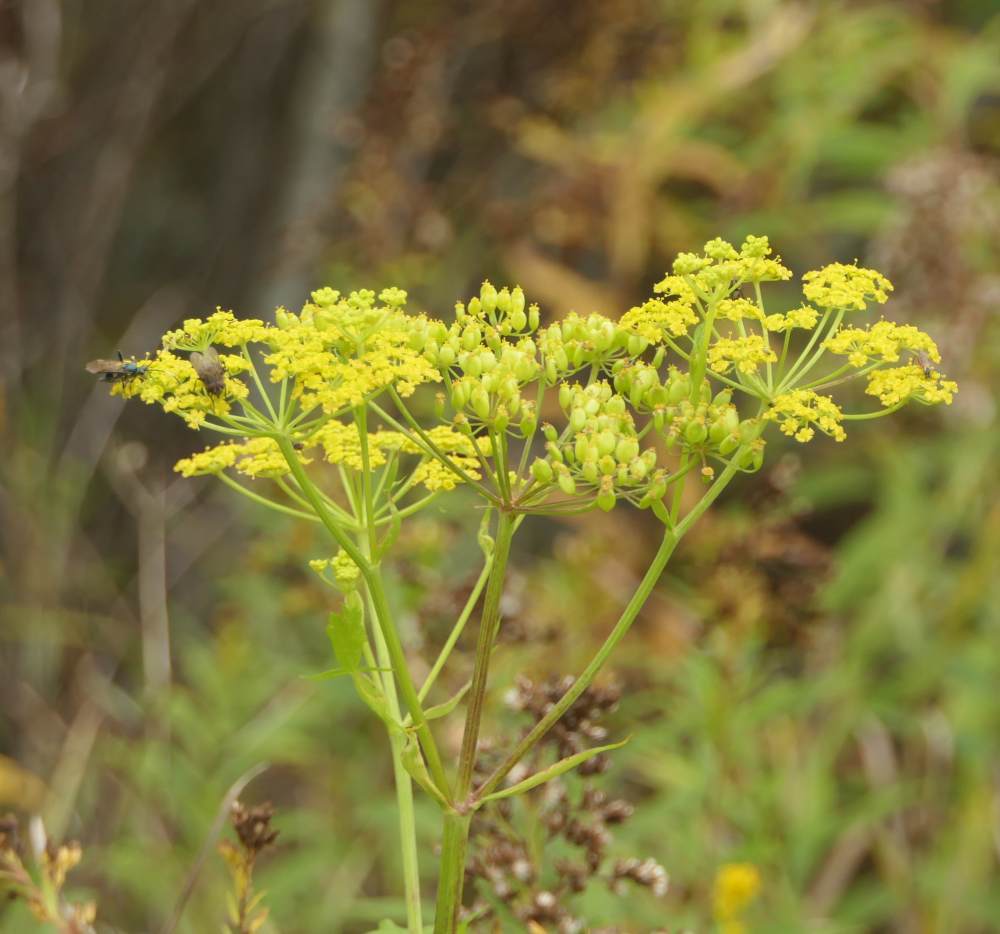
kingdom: Plantae
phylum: Tracheophyta
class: Magnoliopsida
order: Apiales
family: Apiaceae
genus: Pastinaca
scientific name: Pastinaca sativa
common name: Wild parsnip
